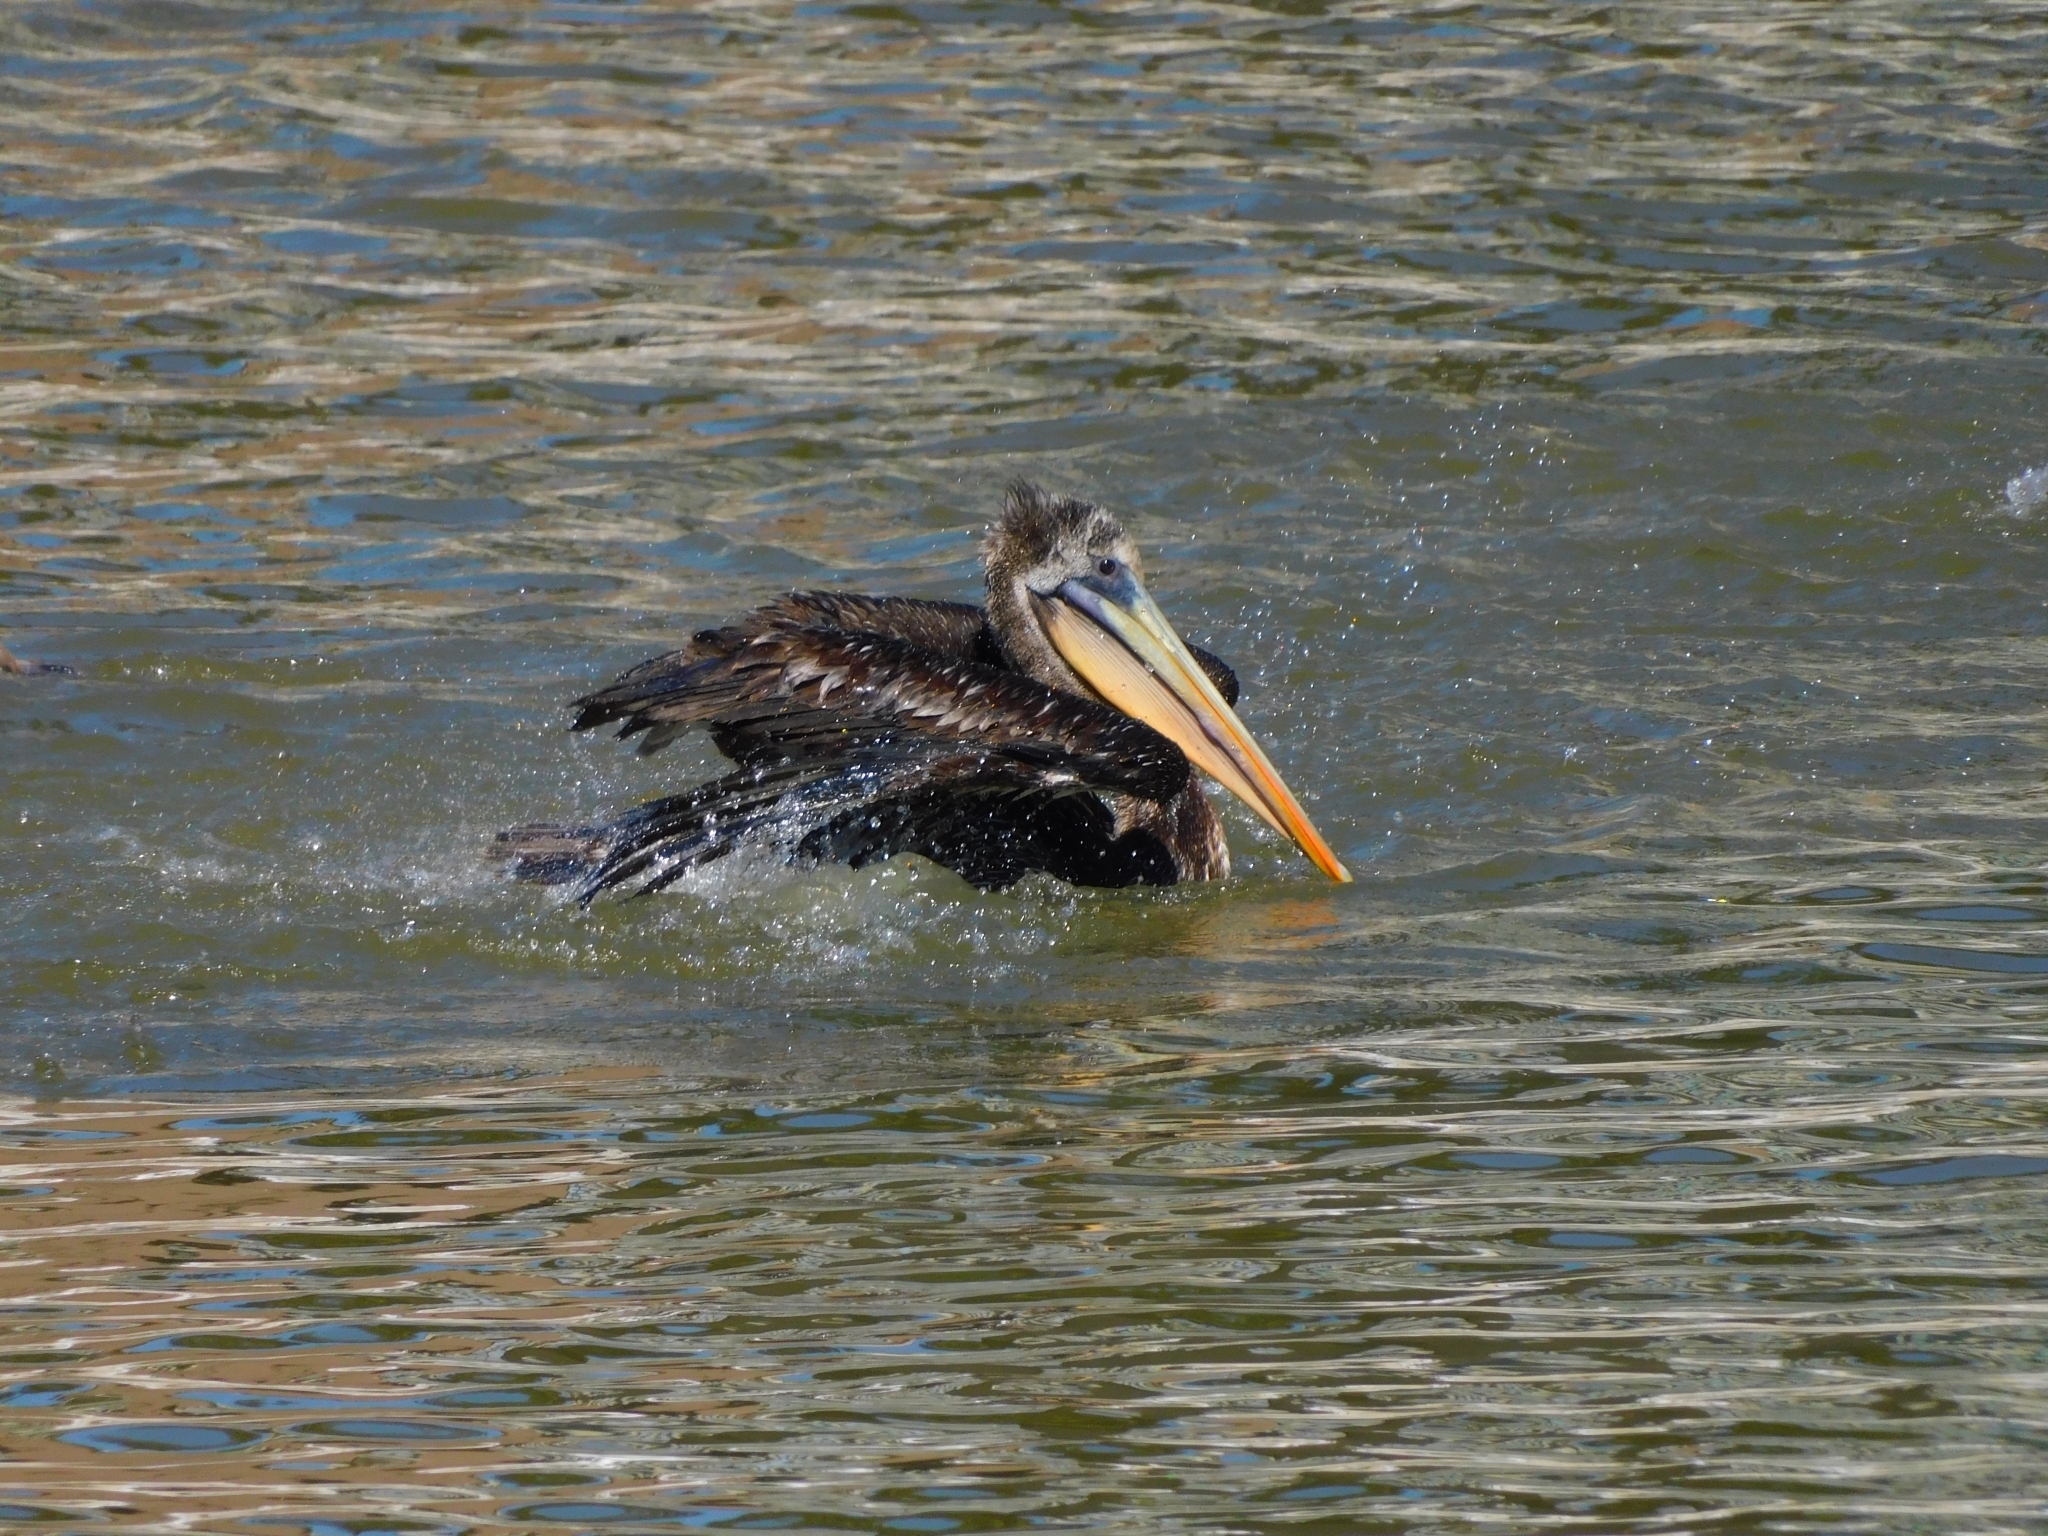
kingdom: Animalia
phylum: Chordata
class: Aves
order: Pelecaniformes
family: Pelecanidae
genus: Pelecanus
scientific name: Pelecanus thagus
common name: Peruvian pelican
